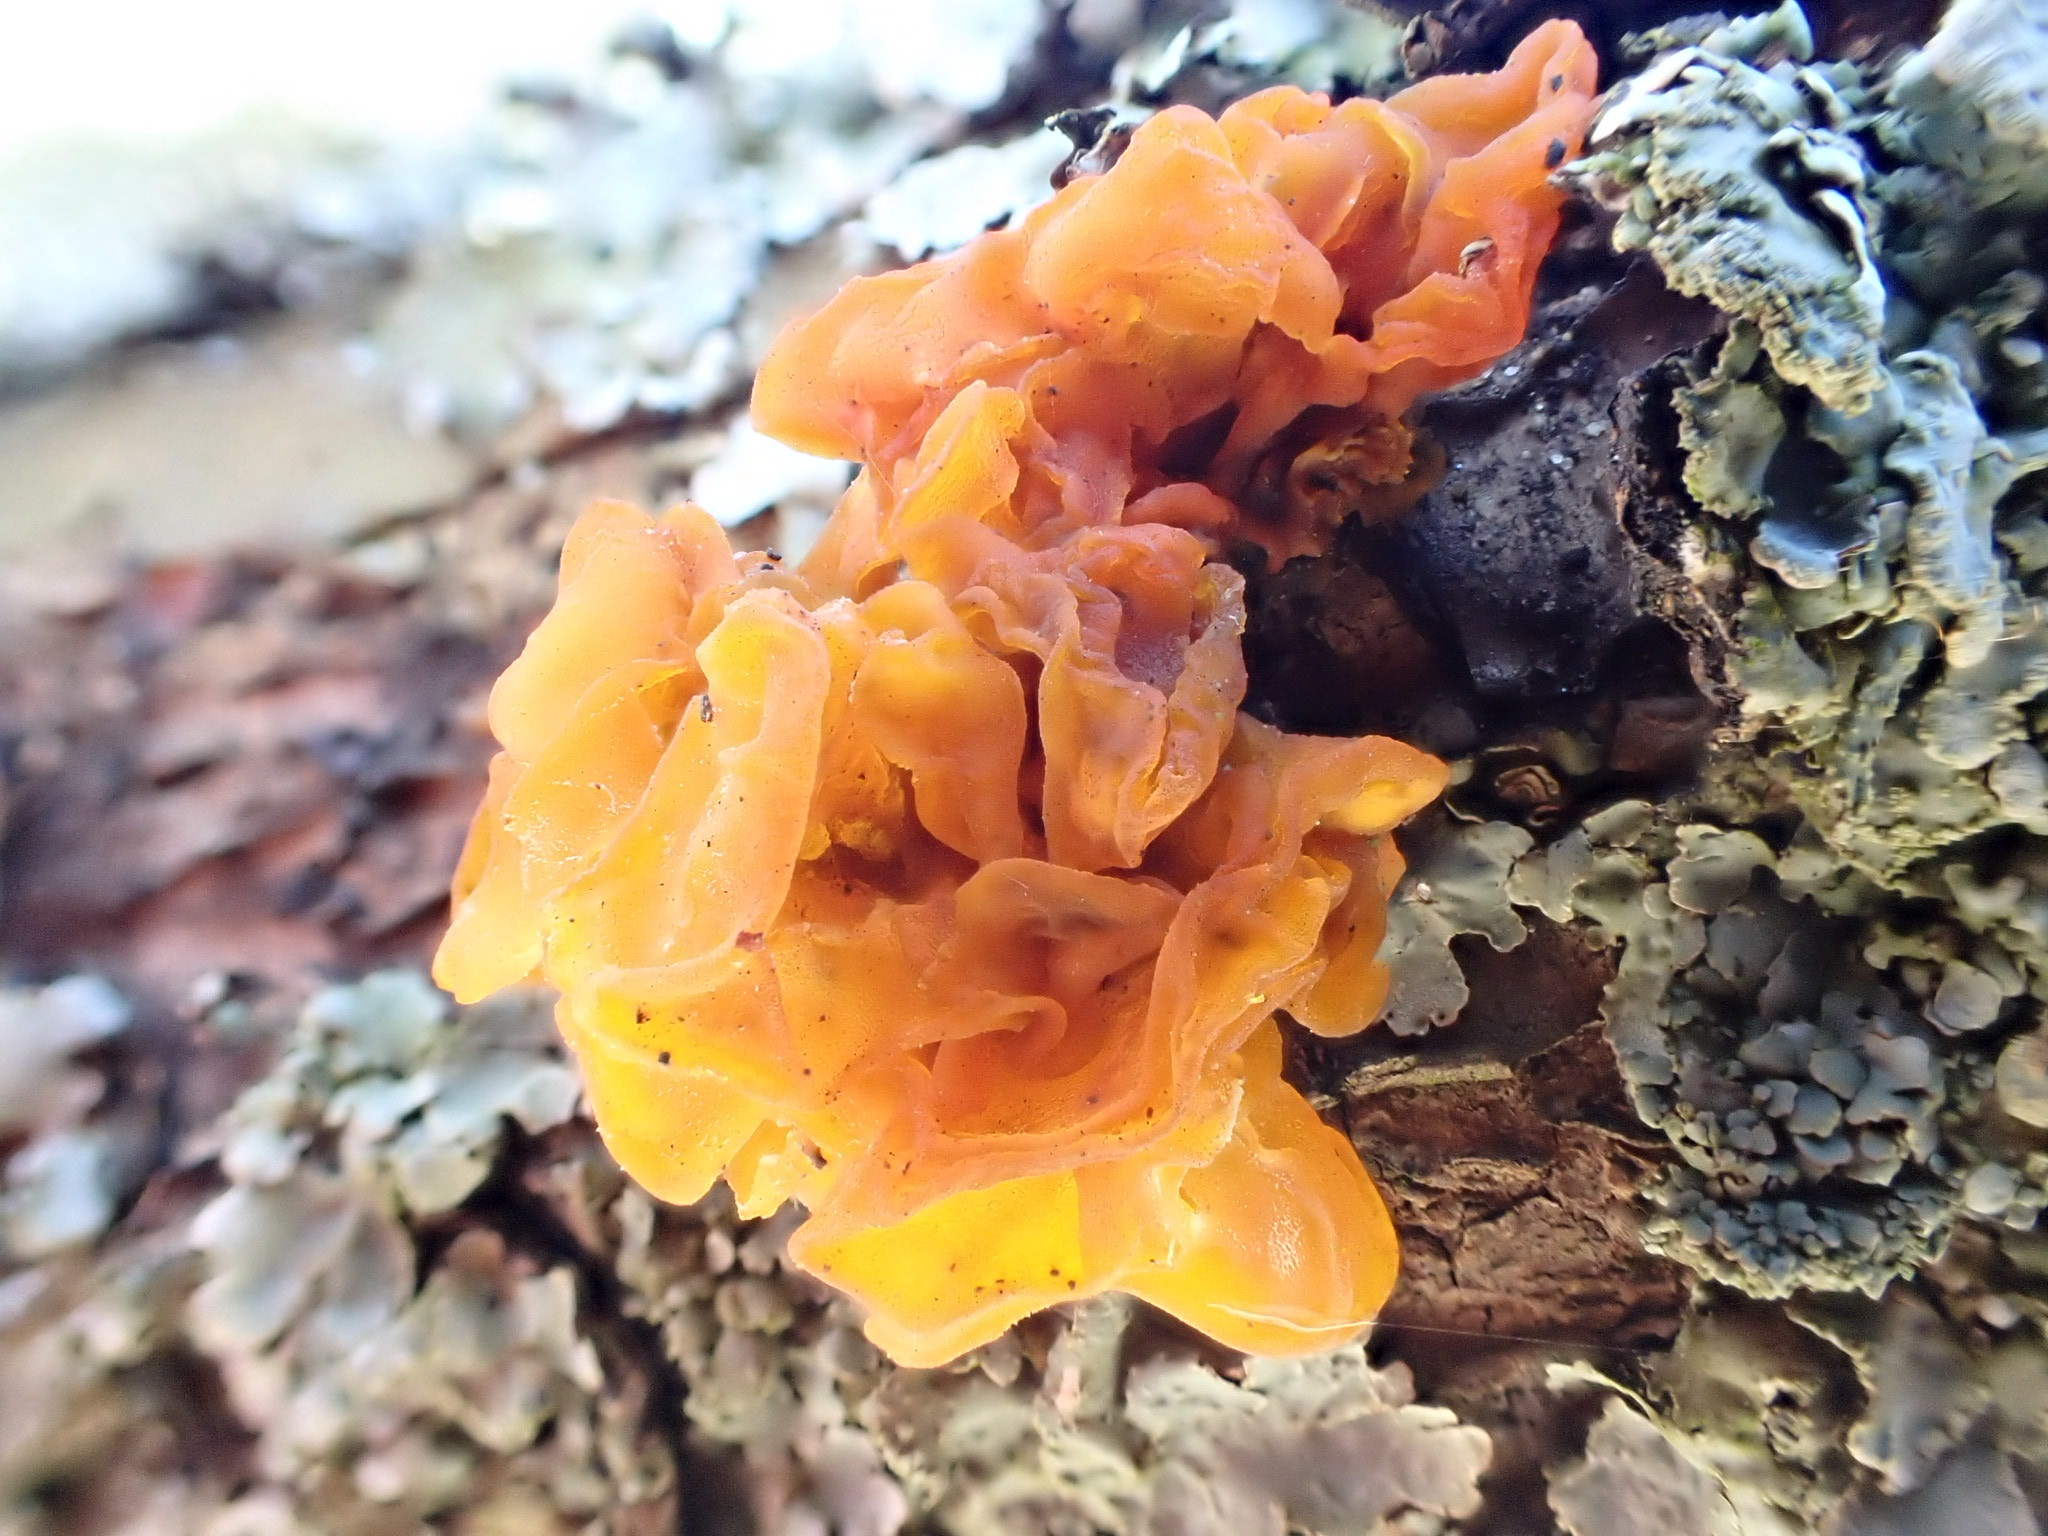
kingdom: Fungi
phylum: Basidiomycota
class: Tremellomycetes
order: Tremellales
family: Tremellaceae
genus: Tremella
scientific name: Tremella mesenterica
